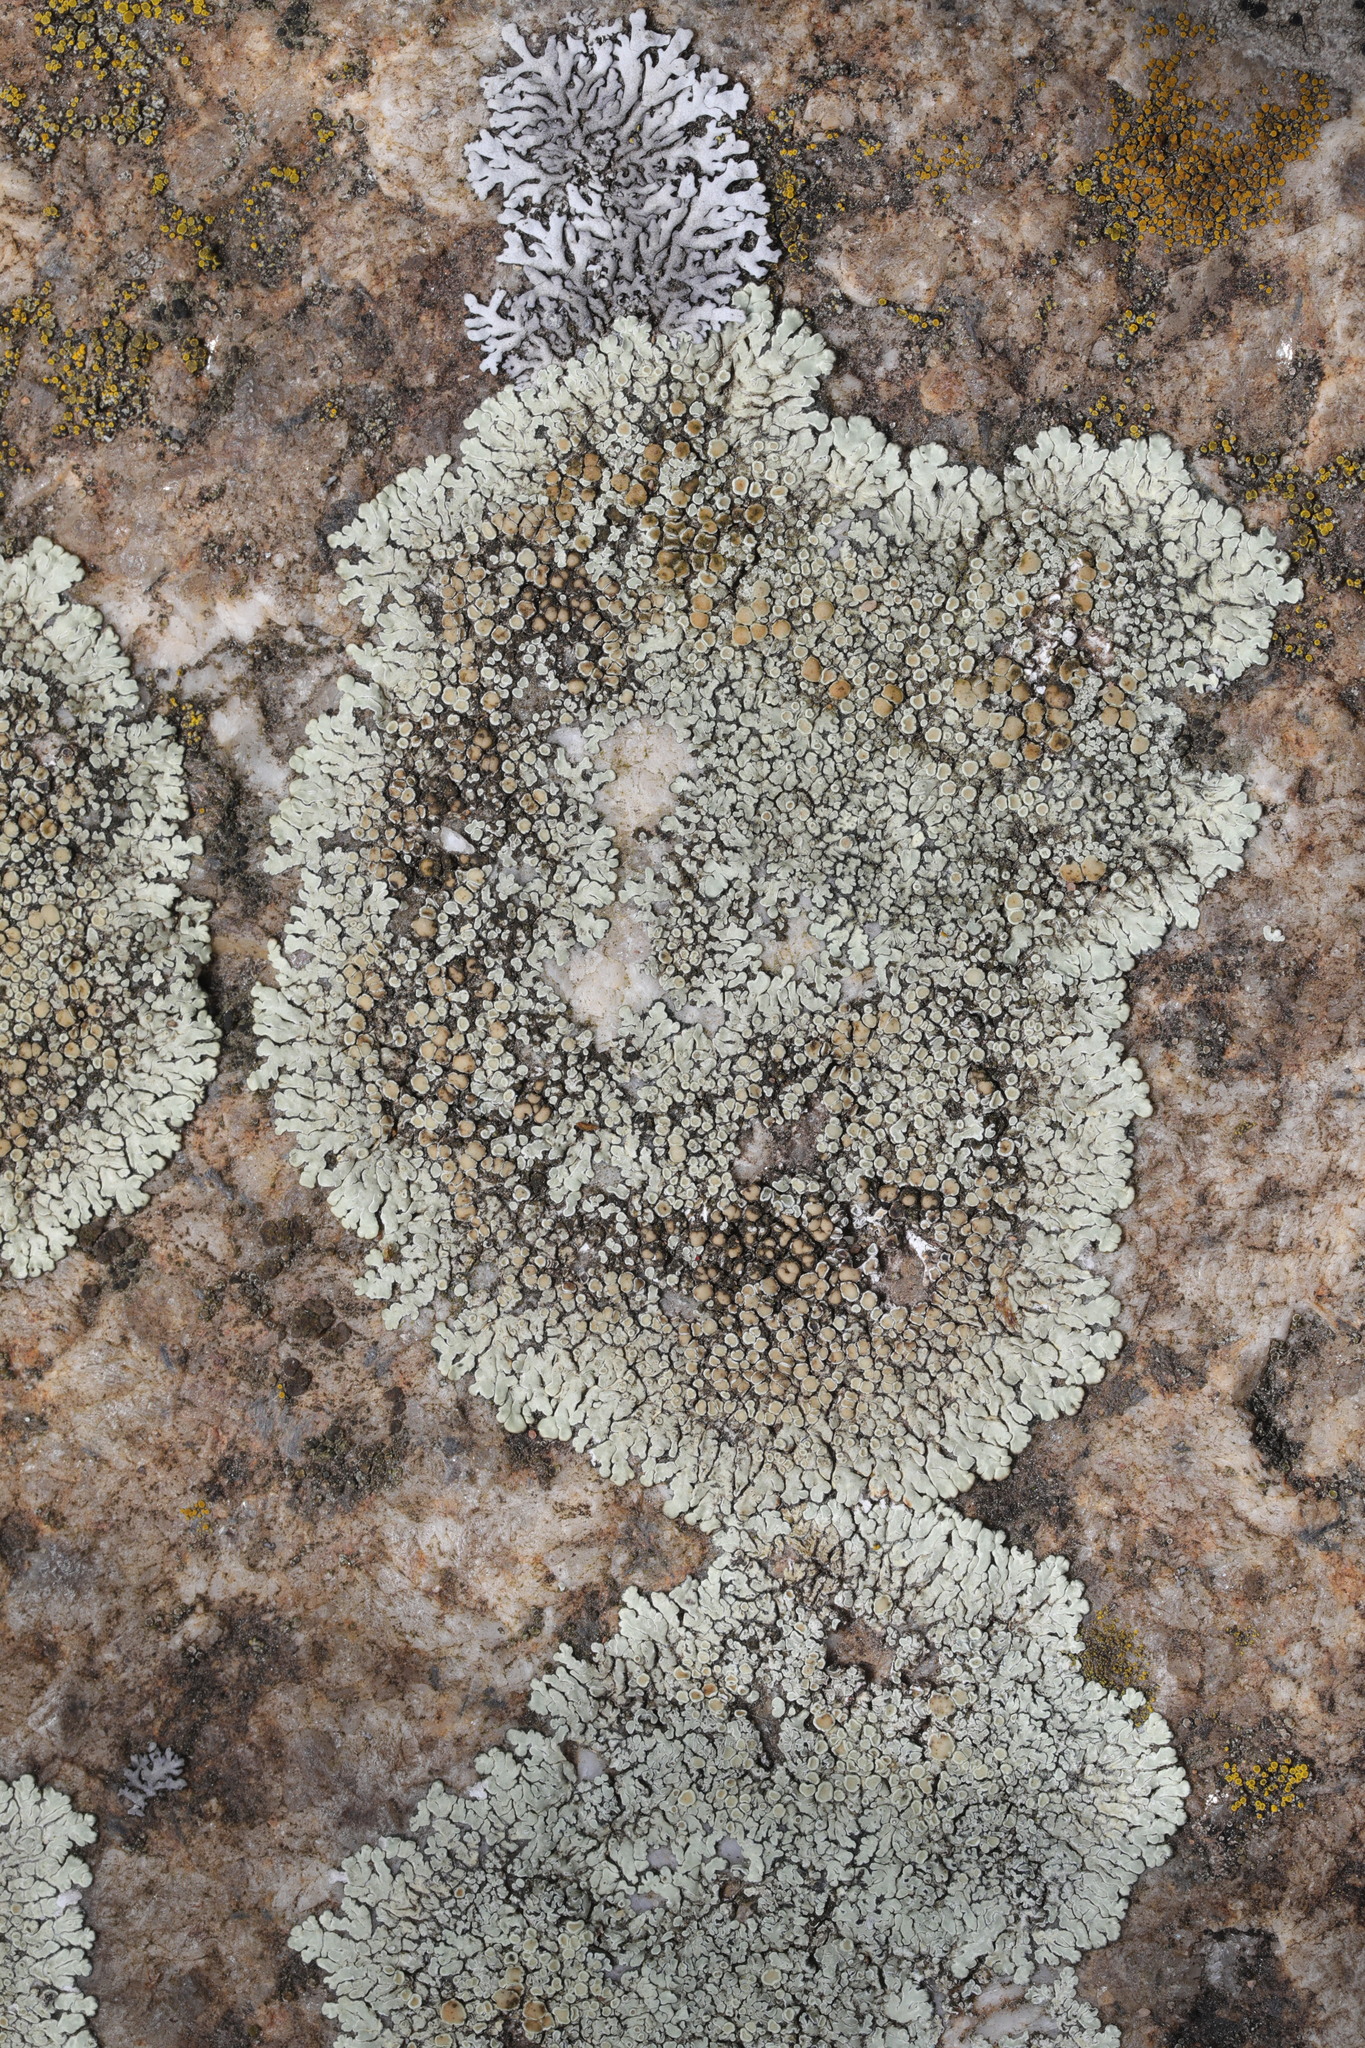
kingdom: Fungi
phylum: Ascomycota
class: Lecanoromycetes
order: Lecanorales
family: Lecanoraceae
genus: Protoparmeliopsis
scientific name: Protoparmeliopsis muralis
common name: Stonewall rim lichen
